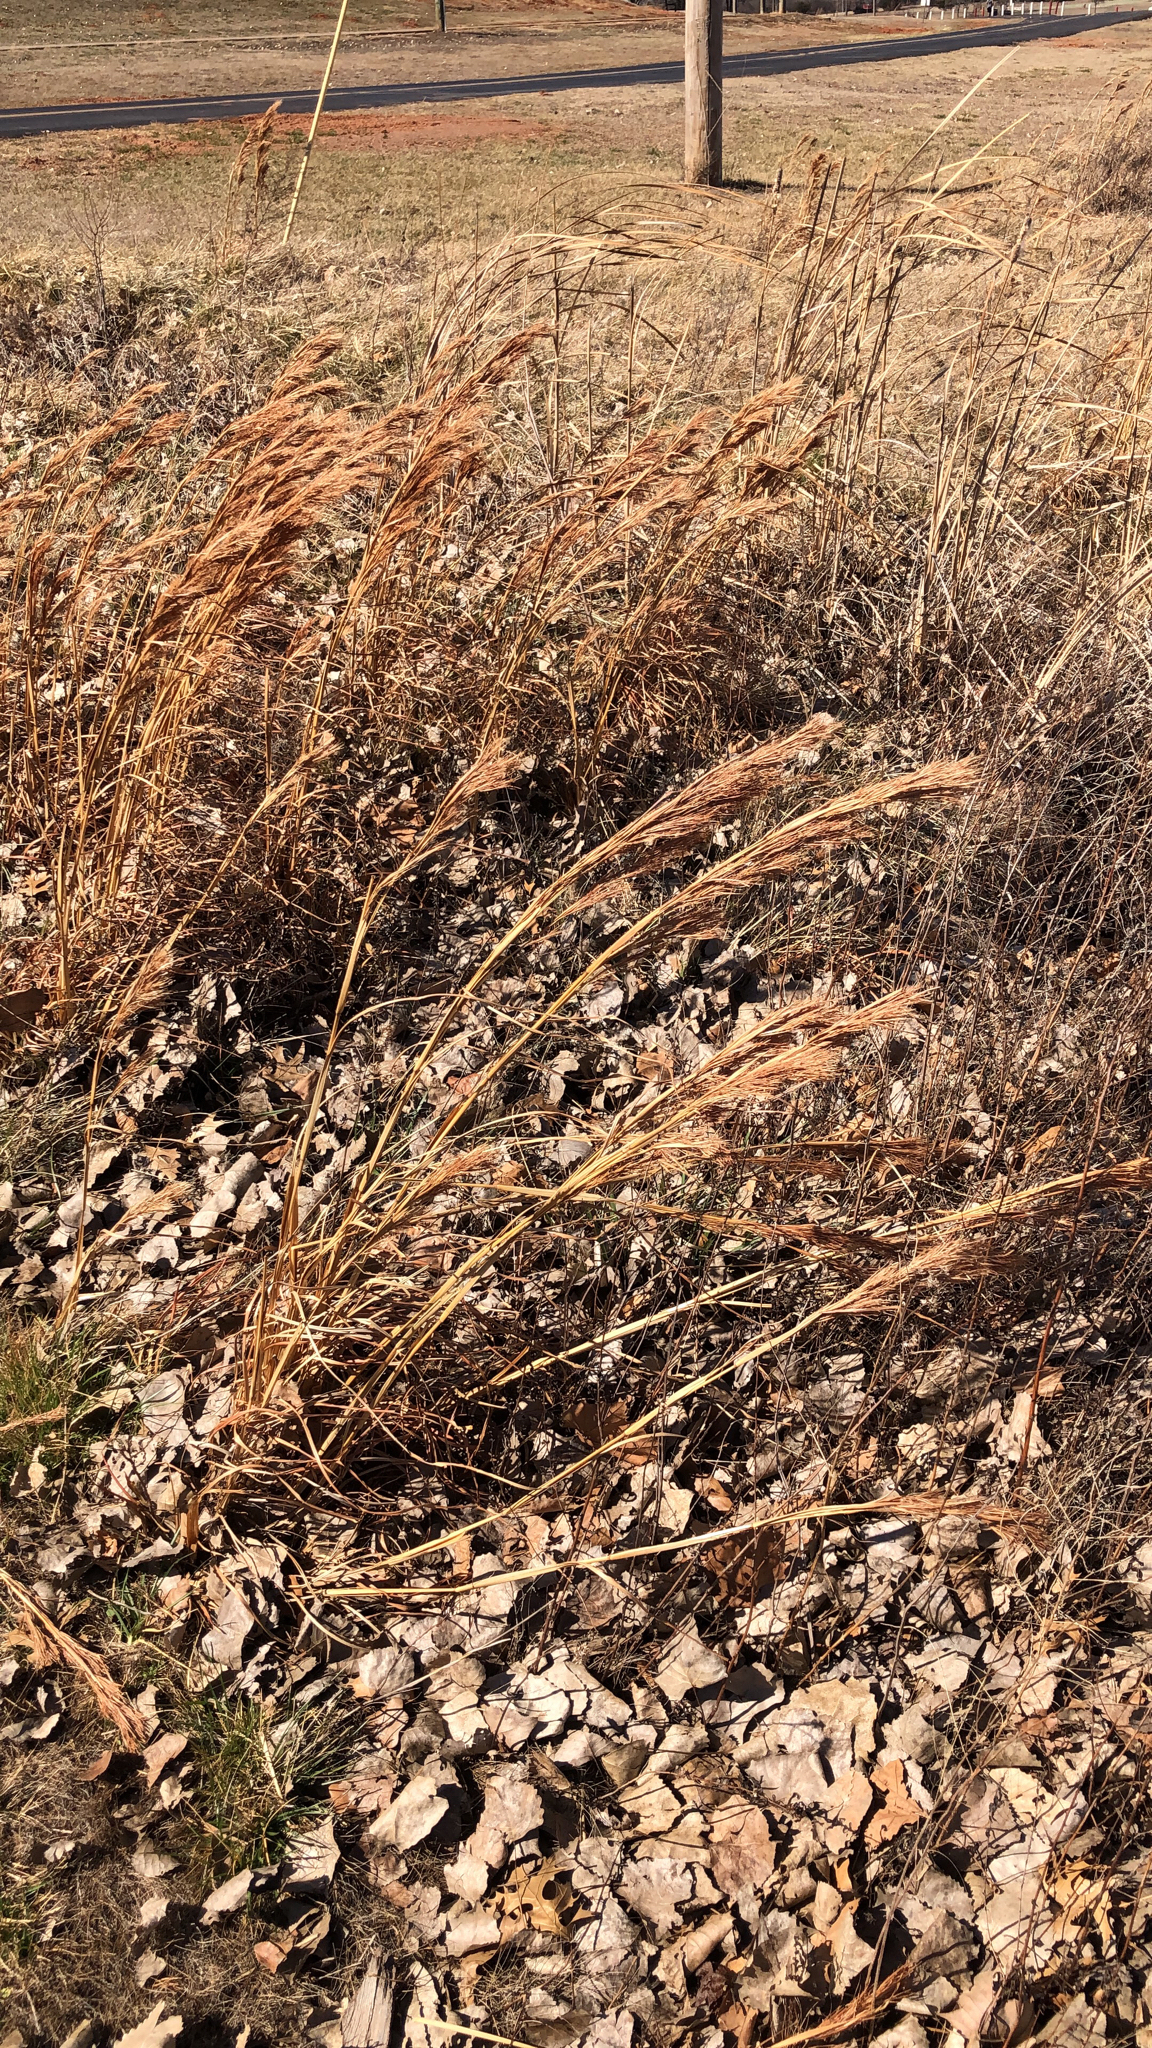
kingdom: Plantae
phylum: Tracheophyta
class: Liliopsida
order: Poales
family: Poaceae
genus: Andropogon
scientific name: Andropogon tenuispatheus
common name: Bushy bluestem
